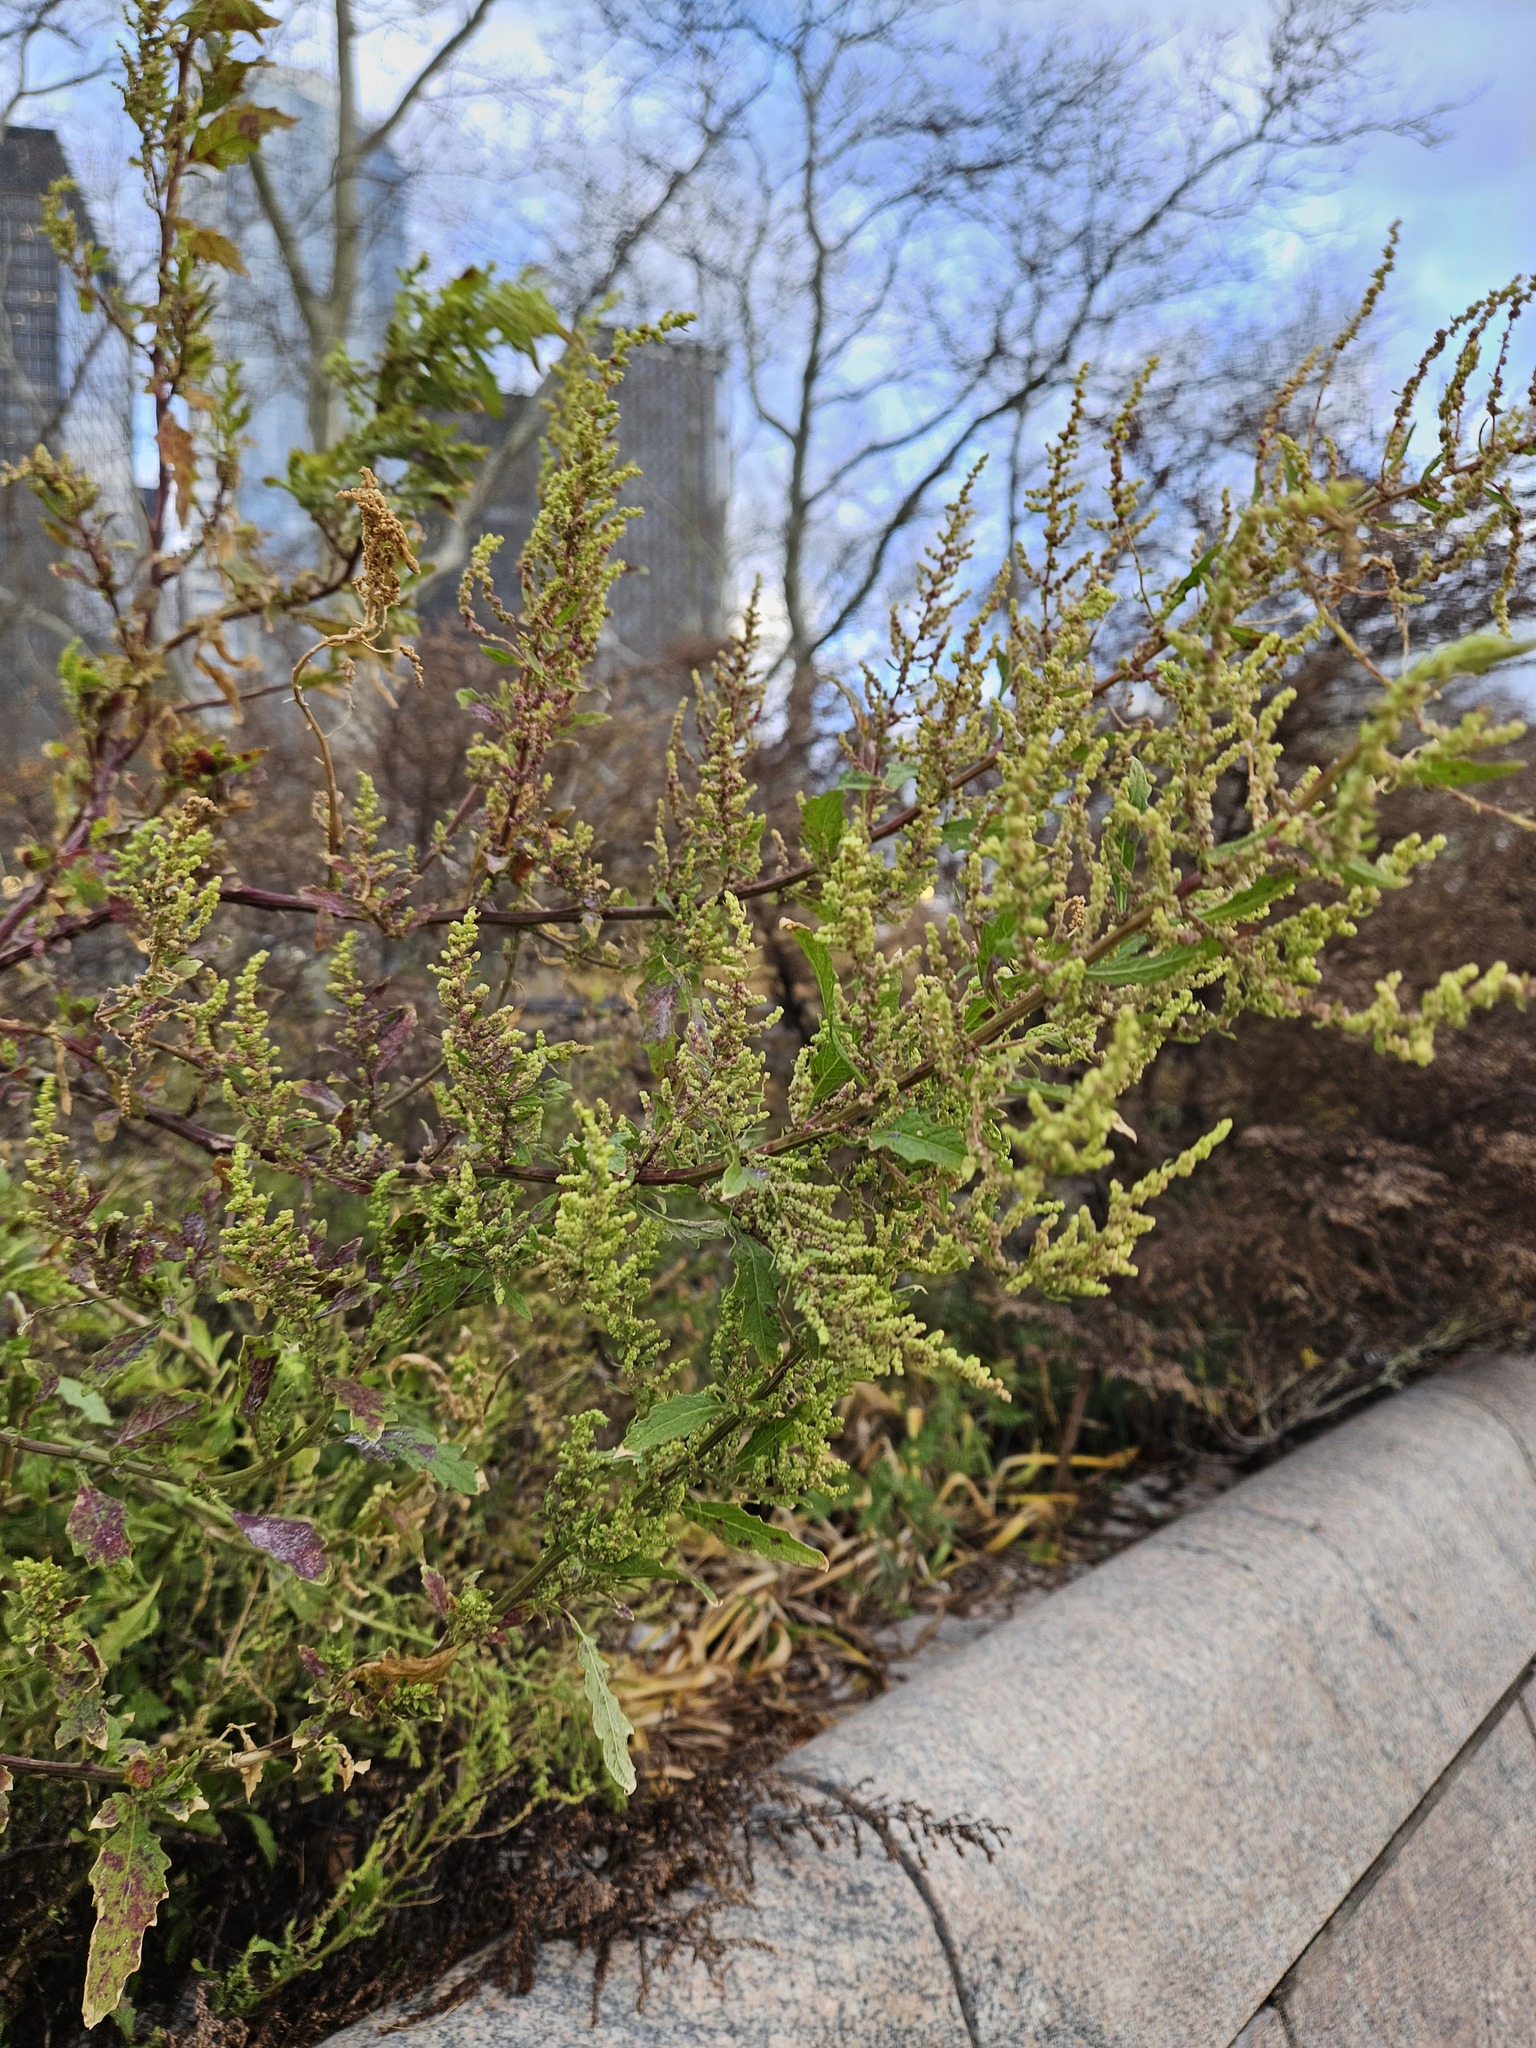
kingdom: Plantae
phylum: Tracheophyta
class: Magnoliopsida
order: Caryophyllales
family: Amaranthaceae
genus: Dysphania
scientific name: Dysphania ambrosioides
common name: Wormseed
